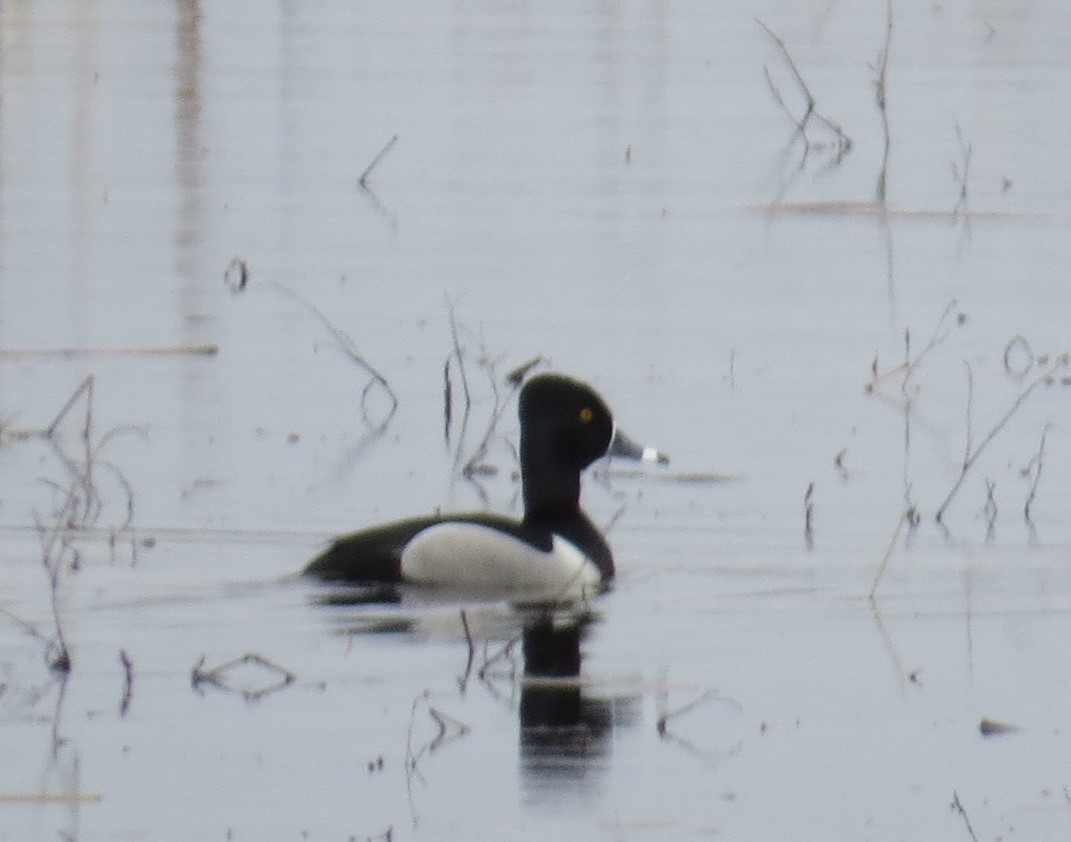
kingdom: Animalia
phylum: Chordata
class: Aves
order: Anseriformes
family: Anatidae
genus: Aythya
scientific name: Aythya collaris
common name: Ring-necked duck
